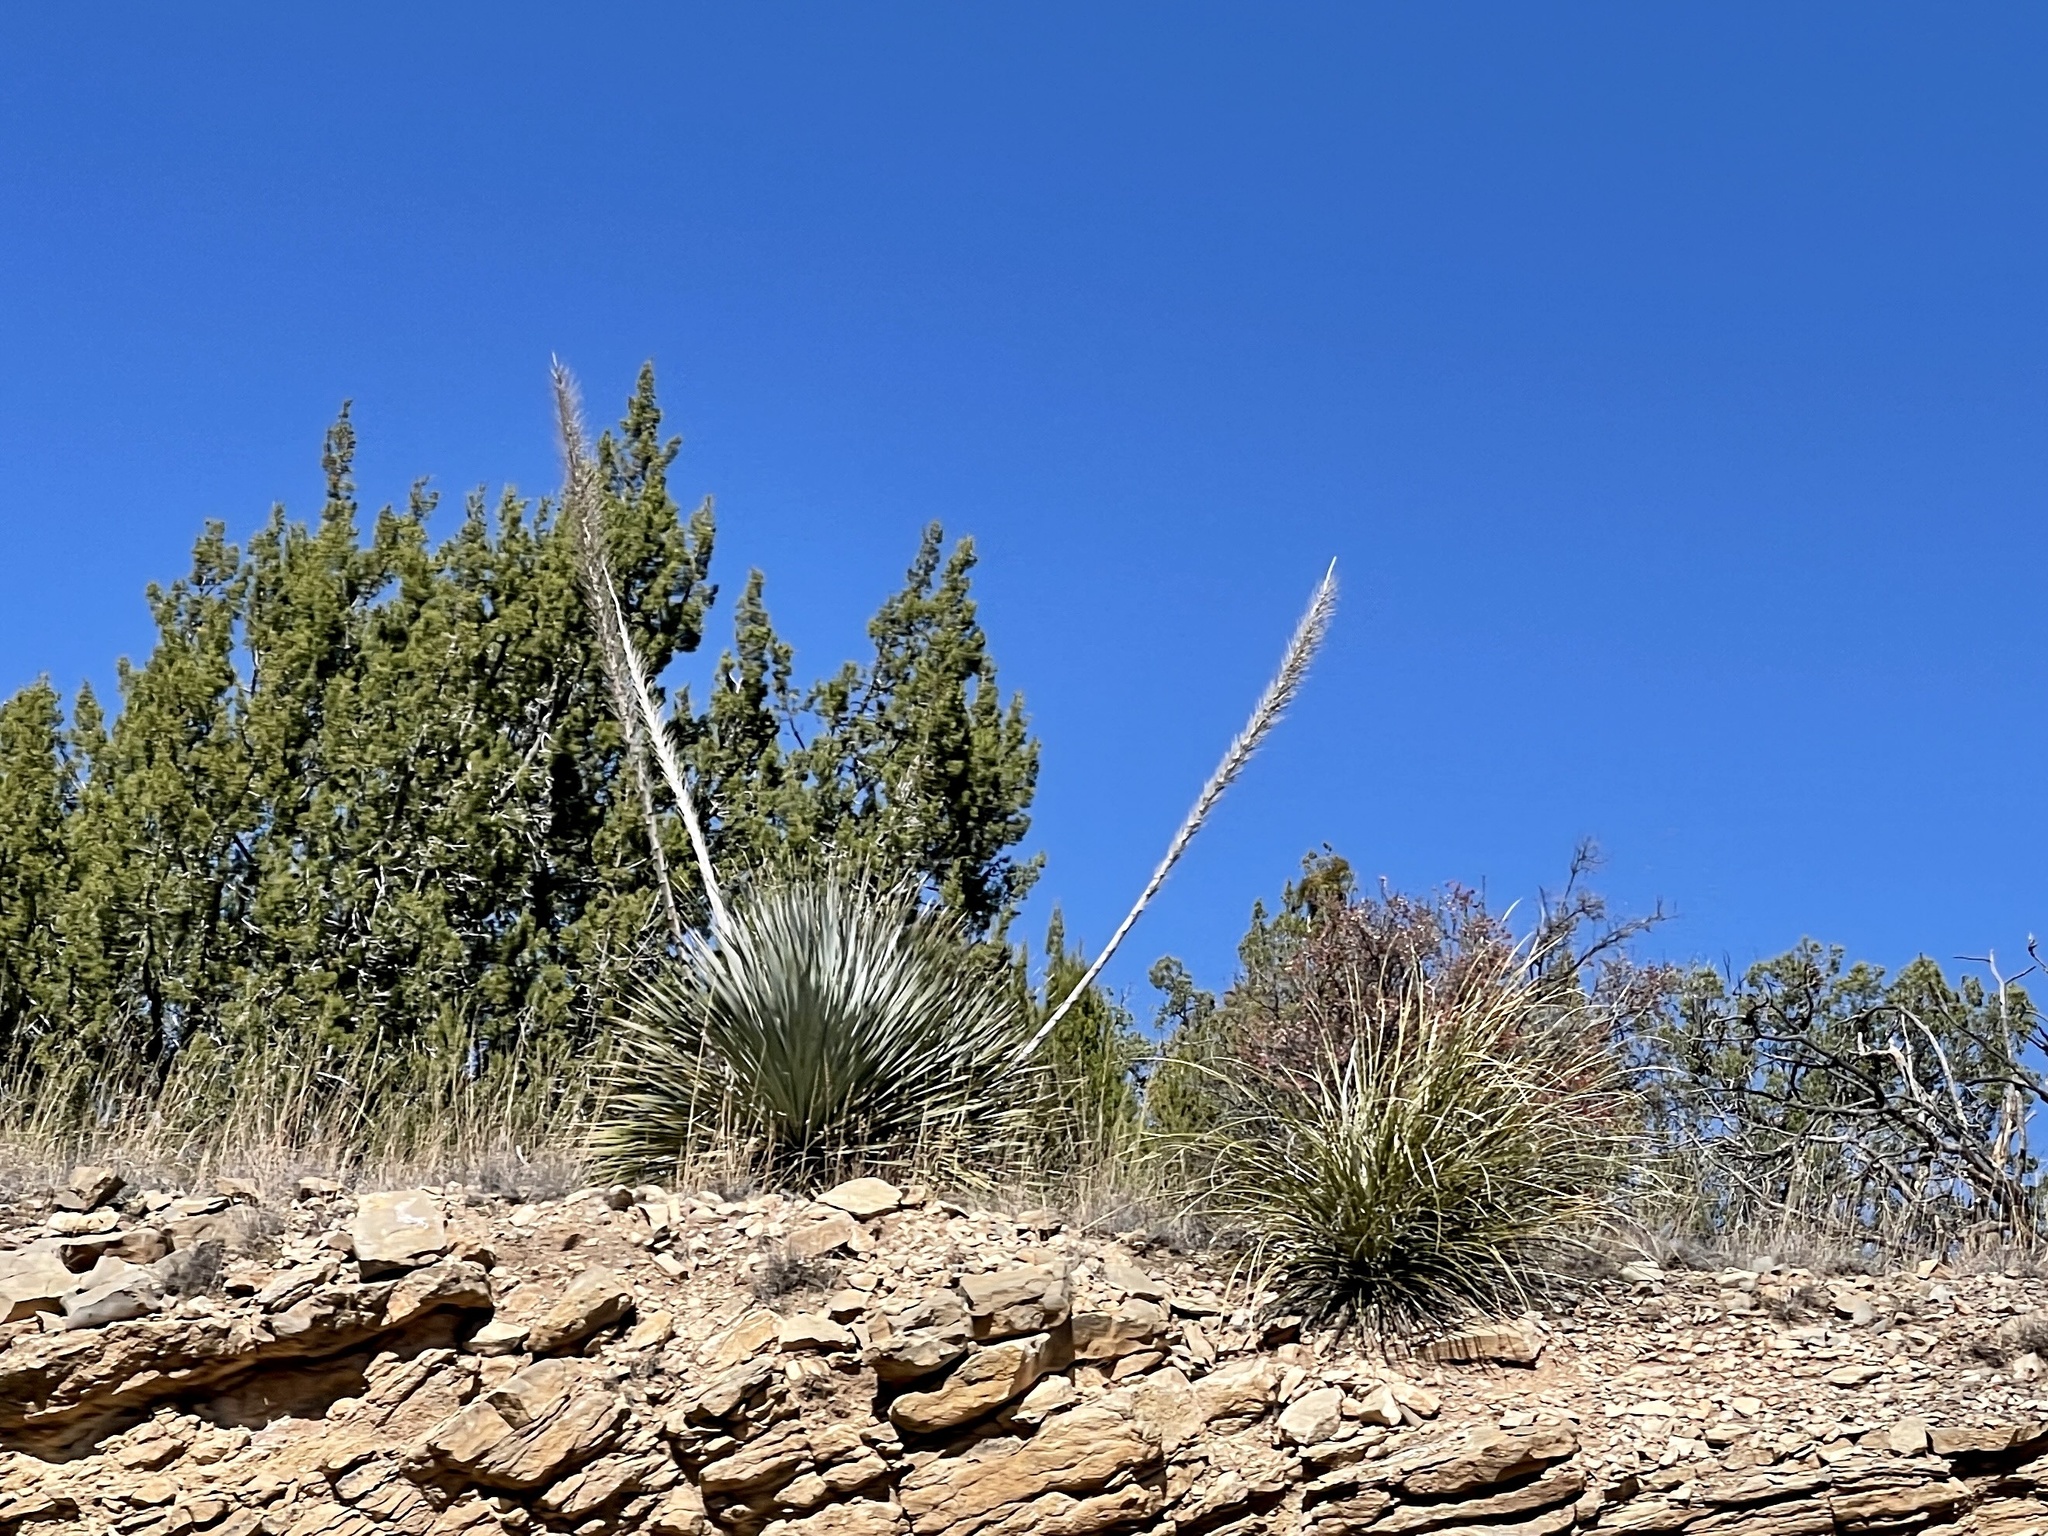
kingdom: Plantae
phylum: Tracheophyta
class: Liliopsida
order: Asparagales
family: Asparagaceae
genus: Dasylirion
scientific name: Dasylirion wheeleri
